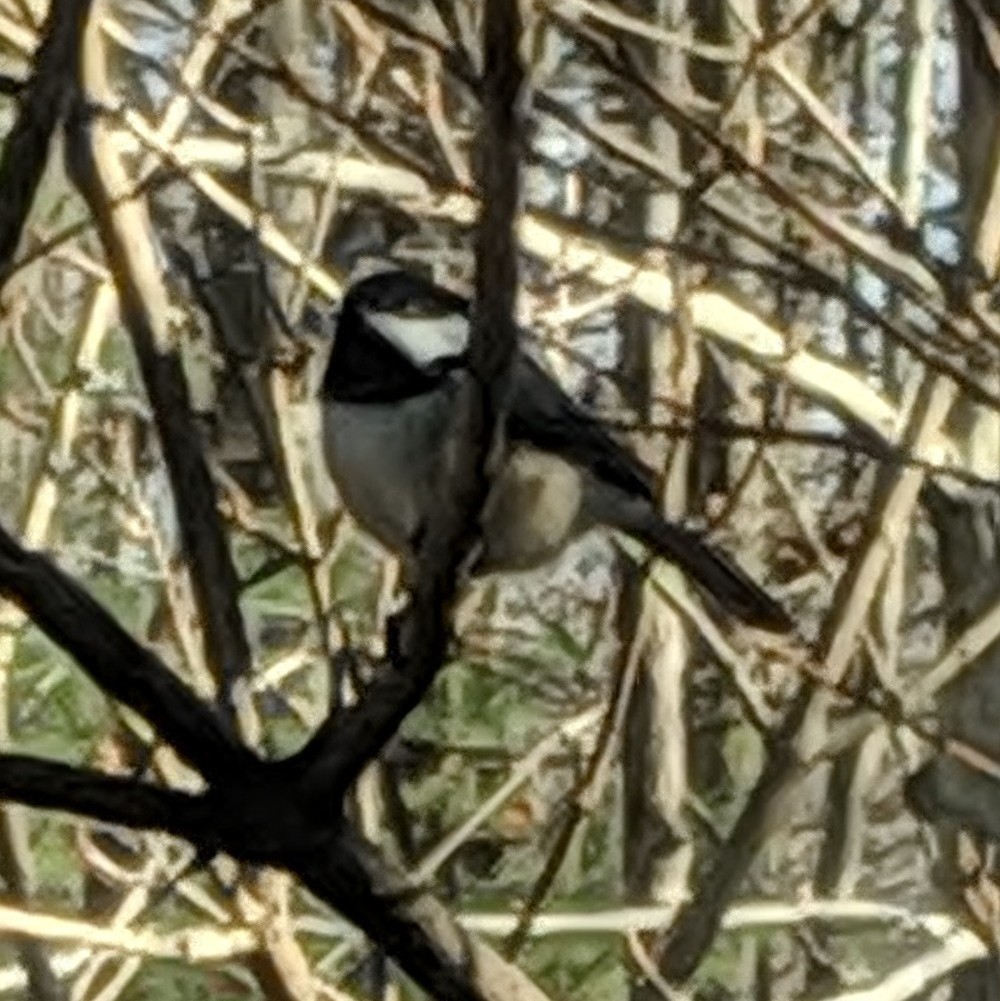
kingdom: Animalia
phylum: Chordata
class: Aves
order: Passeriformes
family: Paridae
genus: Poecile
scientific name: Poecile atricapillus
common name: Black-capped chickadee
